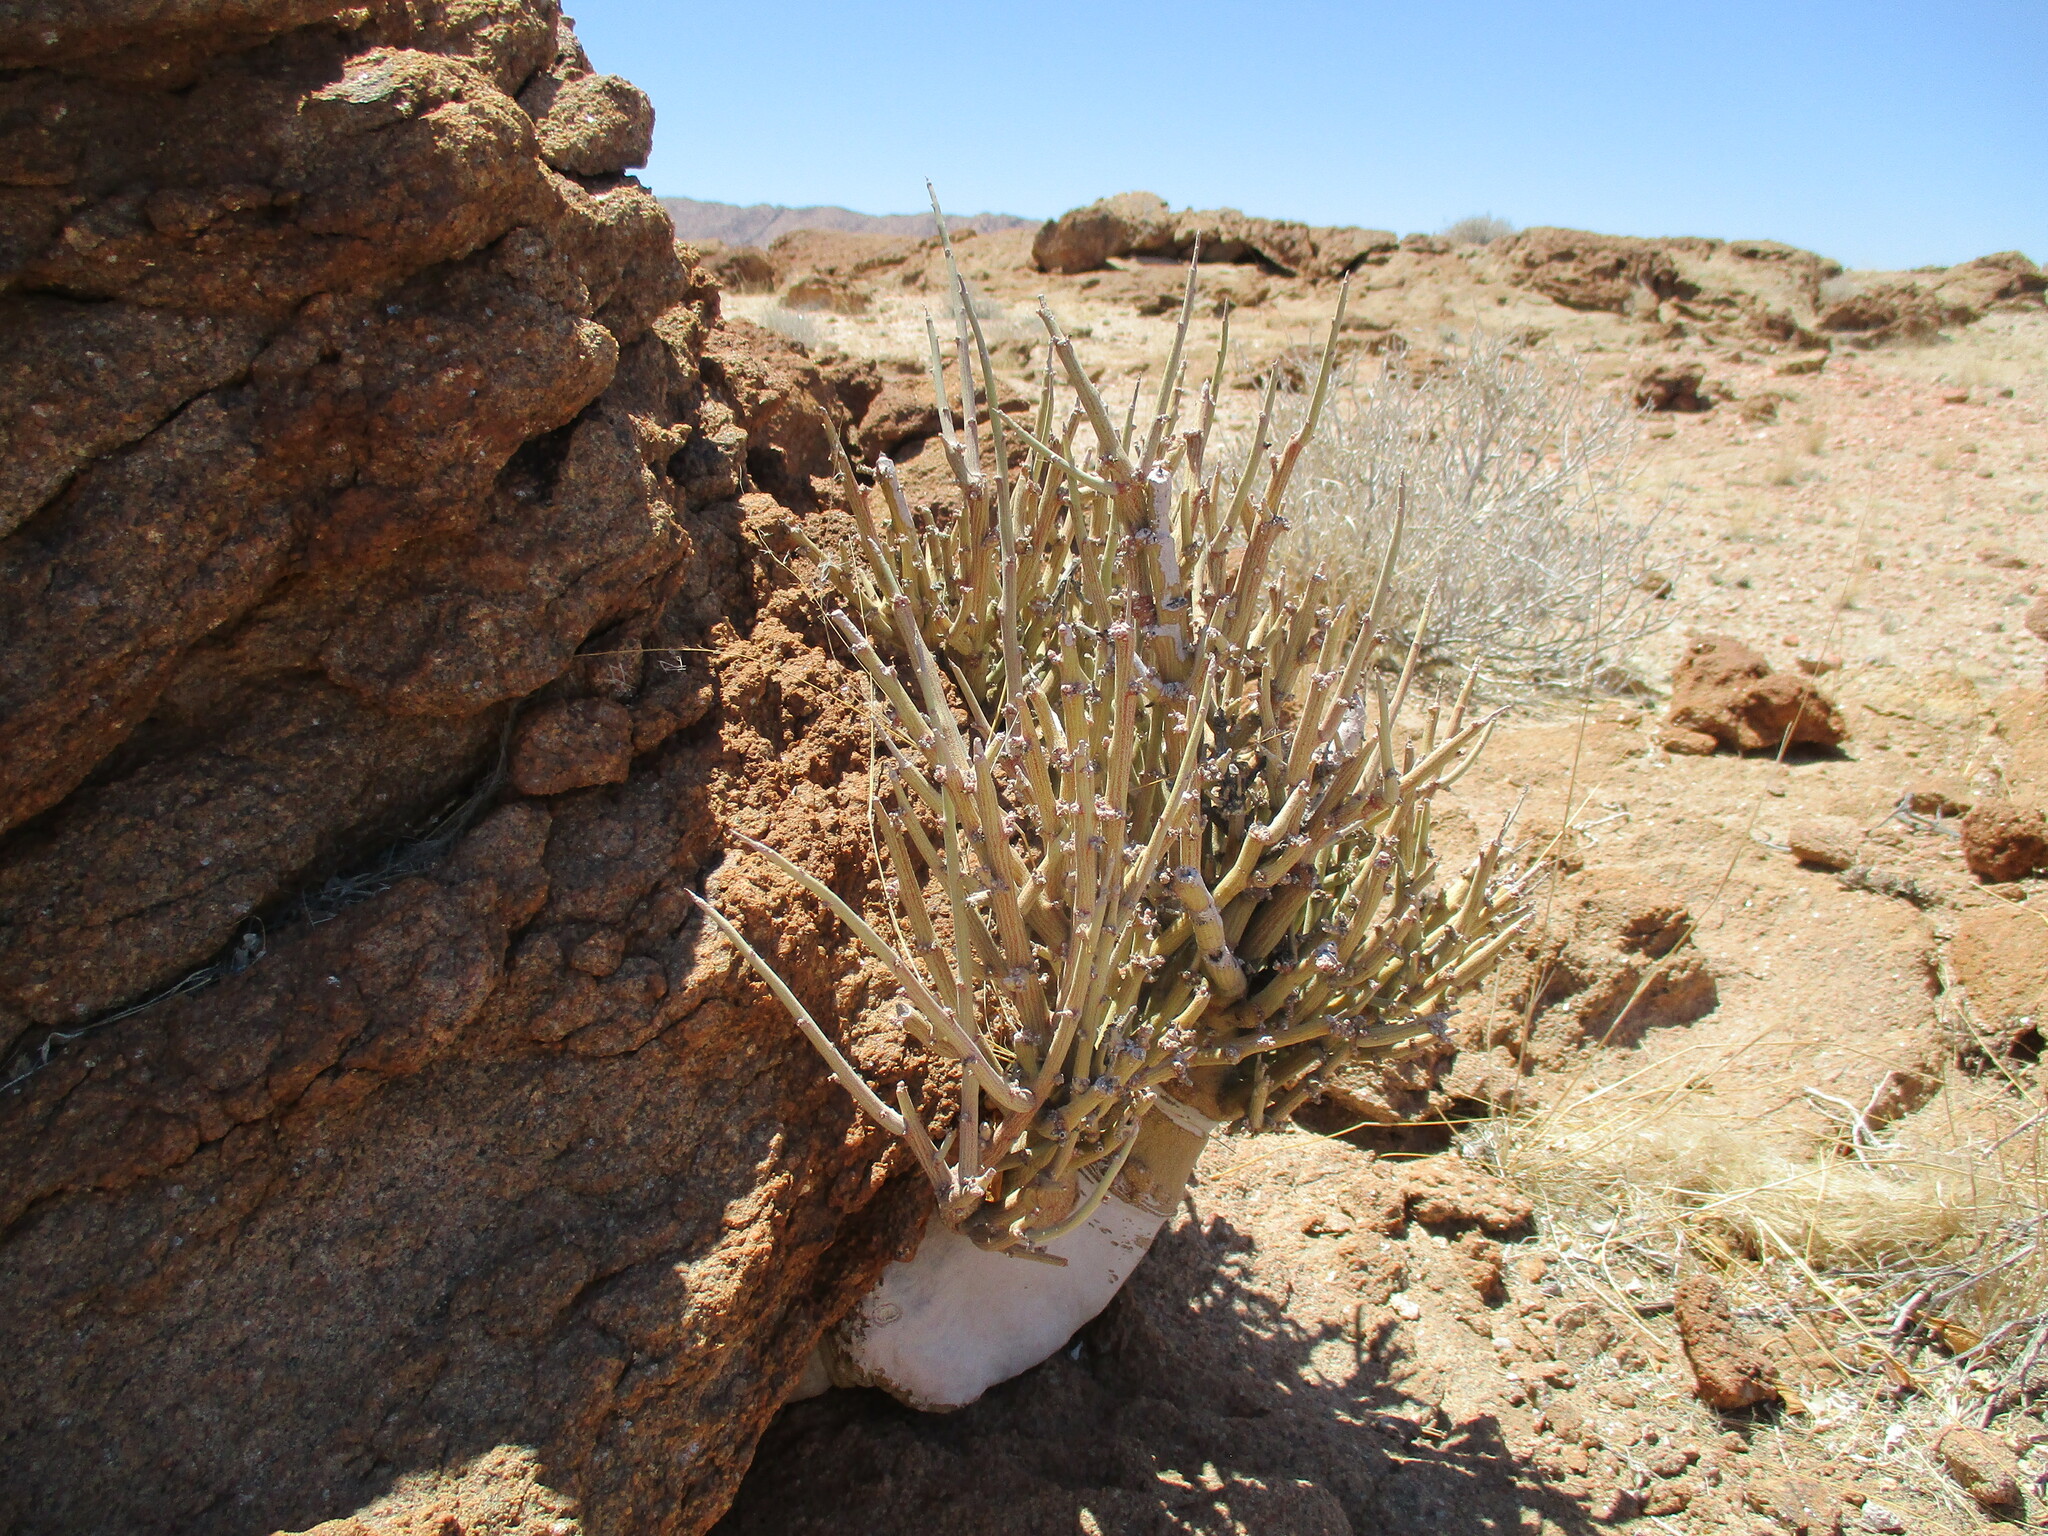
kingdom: Plantae
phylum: Tracheophyta
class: Magnoliopsida
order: Malpighiales
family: Passifloraceae
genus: Adenia
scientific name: Adenia pechuelii
